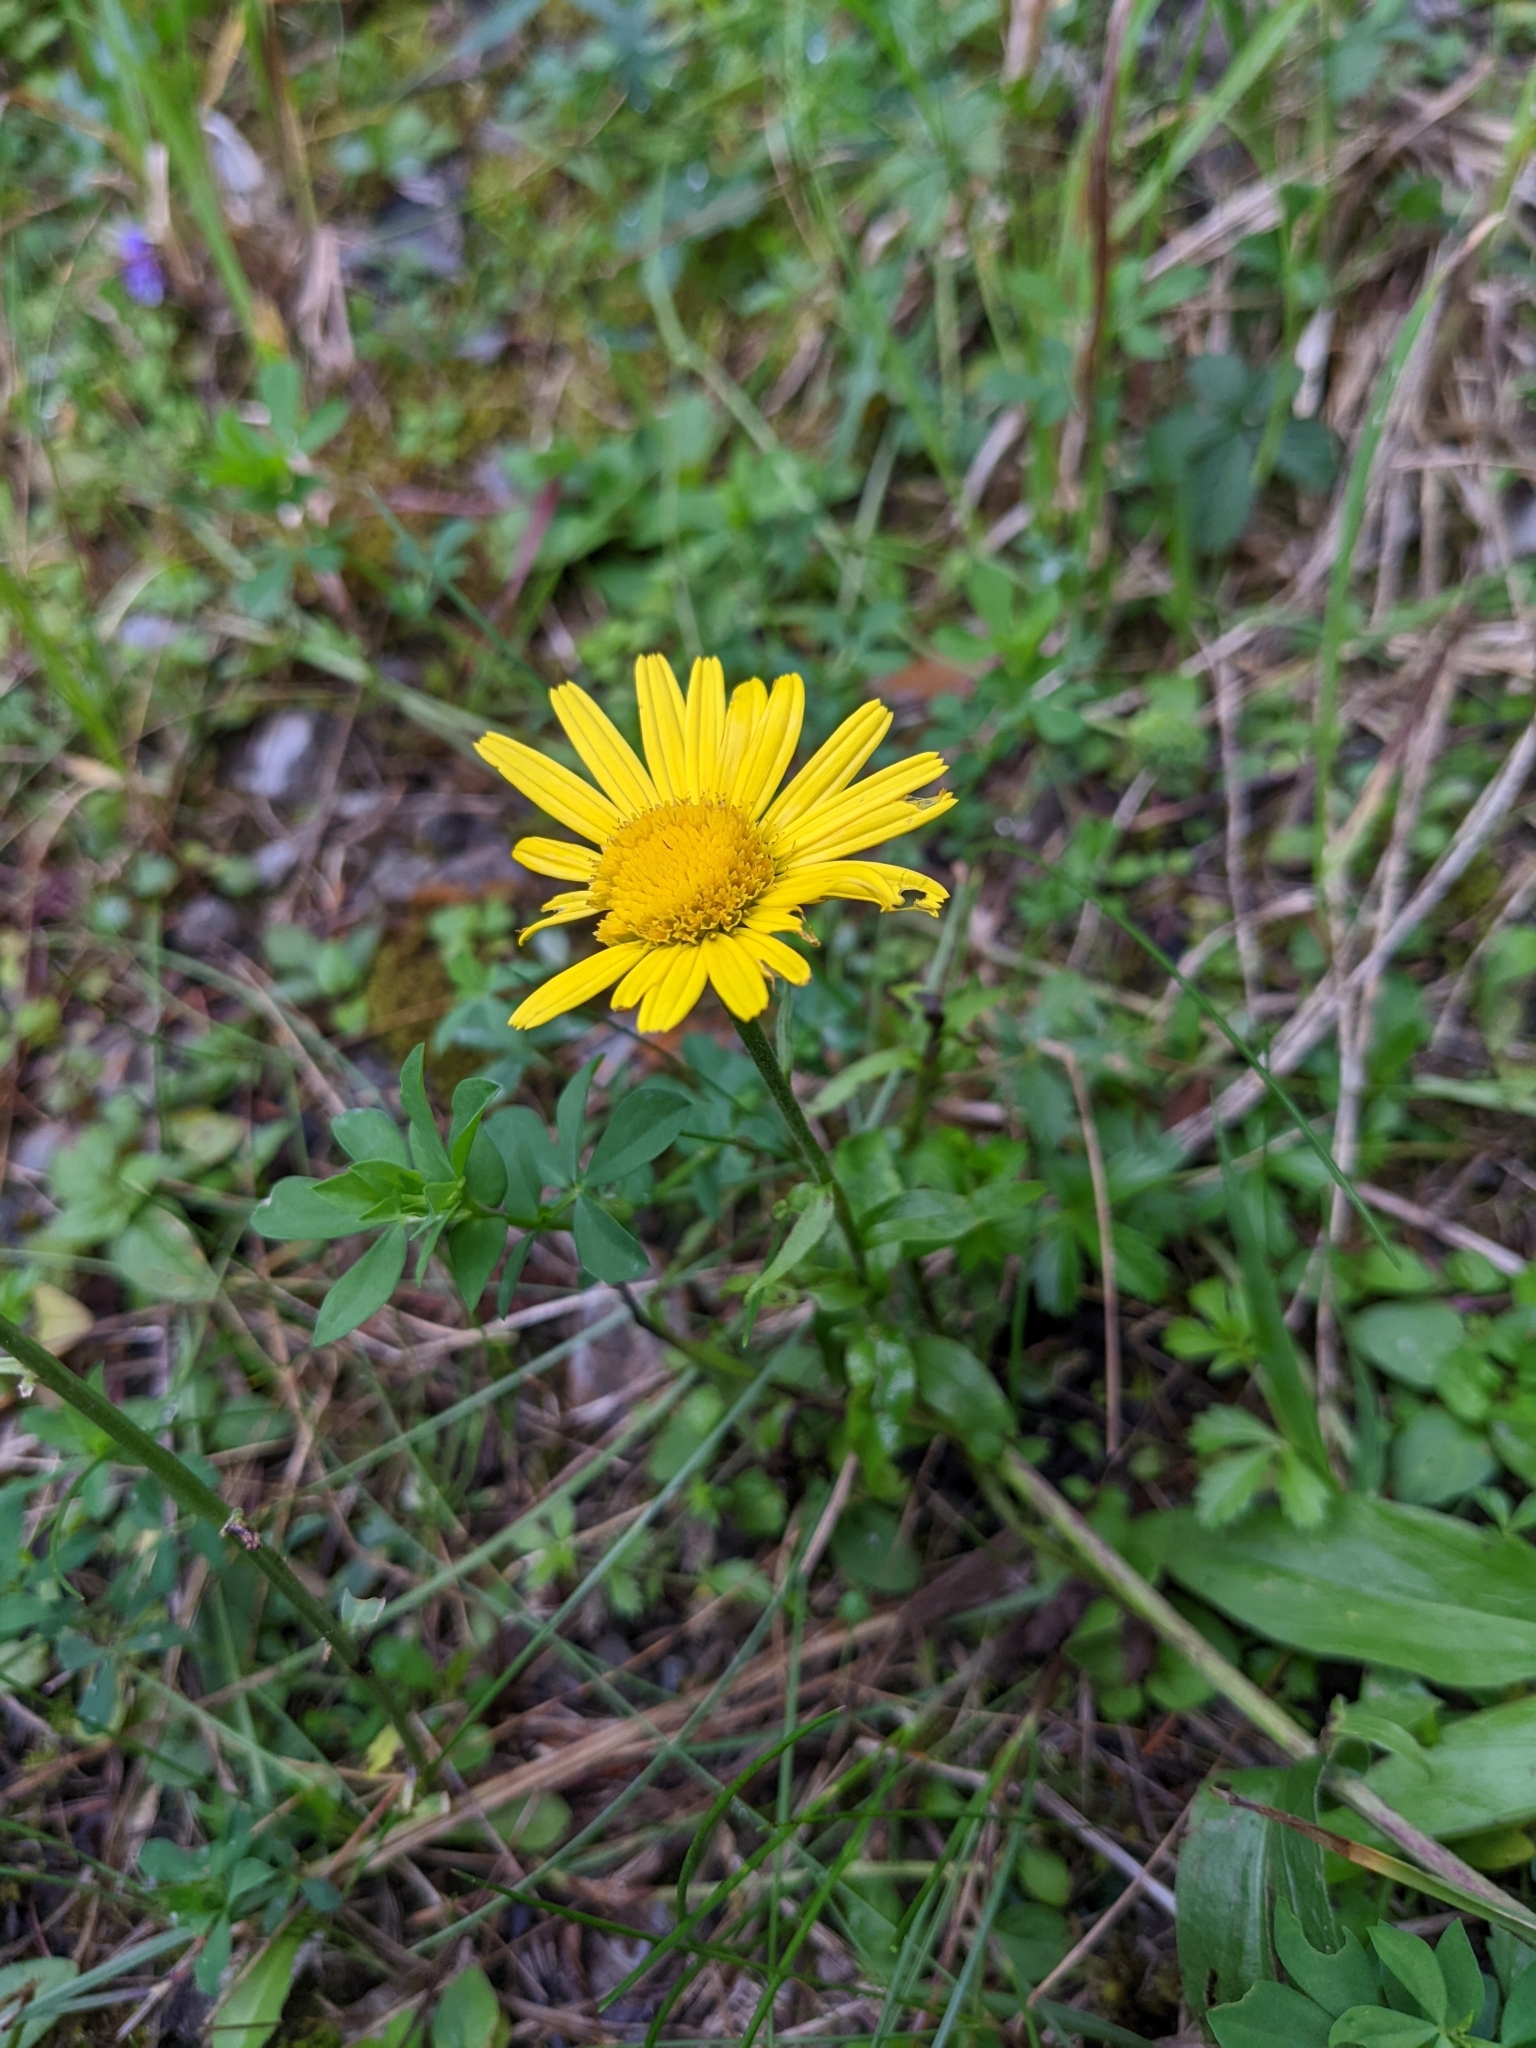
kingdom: Plantae
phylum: Tracheophyta
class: Magnoliopsida
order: Asterales
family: Asteraceae
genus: Buphthalmum
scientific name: Buphthalmum salicifolium
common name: Willow-leaved yellow-oxeye
